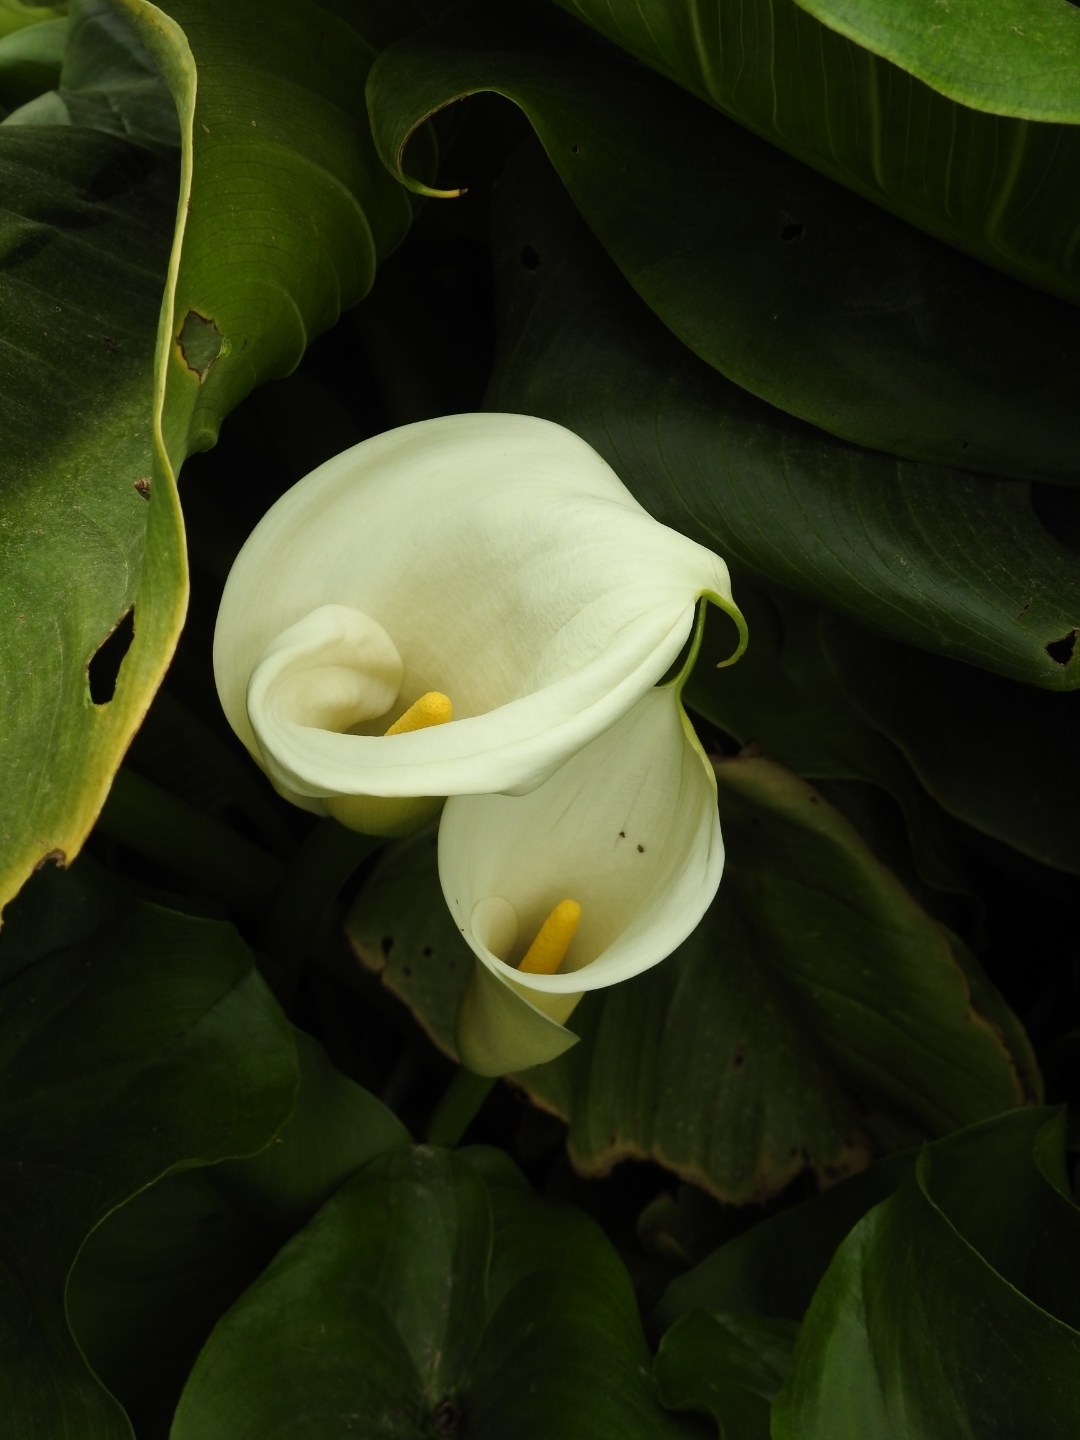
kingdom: Plantae
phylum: Tracheophyta
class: Liliopsida
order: Alismatales
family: Araceae
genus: Zantedeschia
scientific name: Zantedeschia aethiopica
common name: Altar-lily
